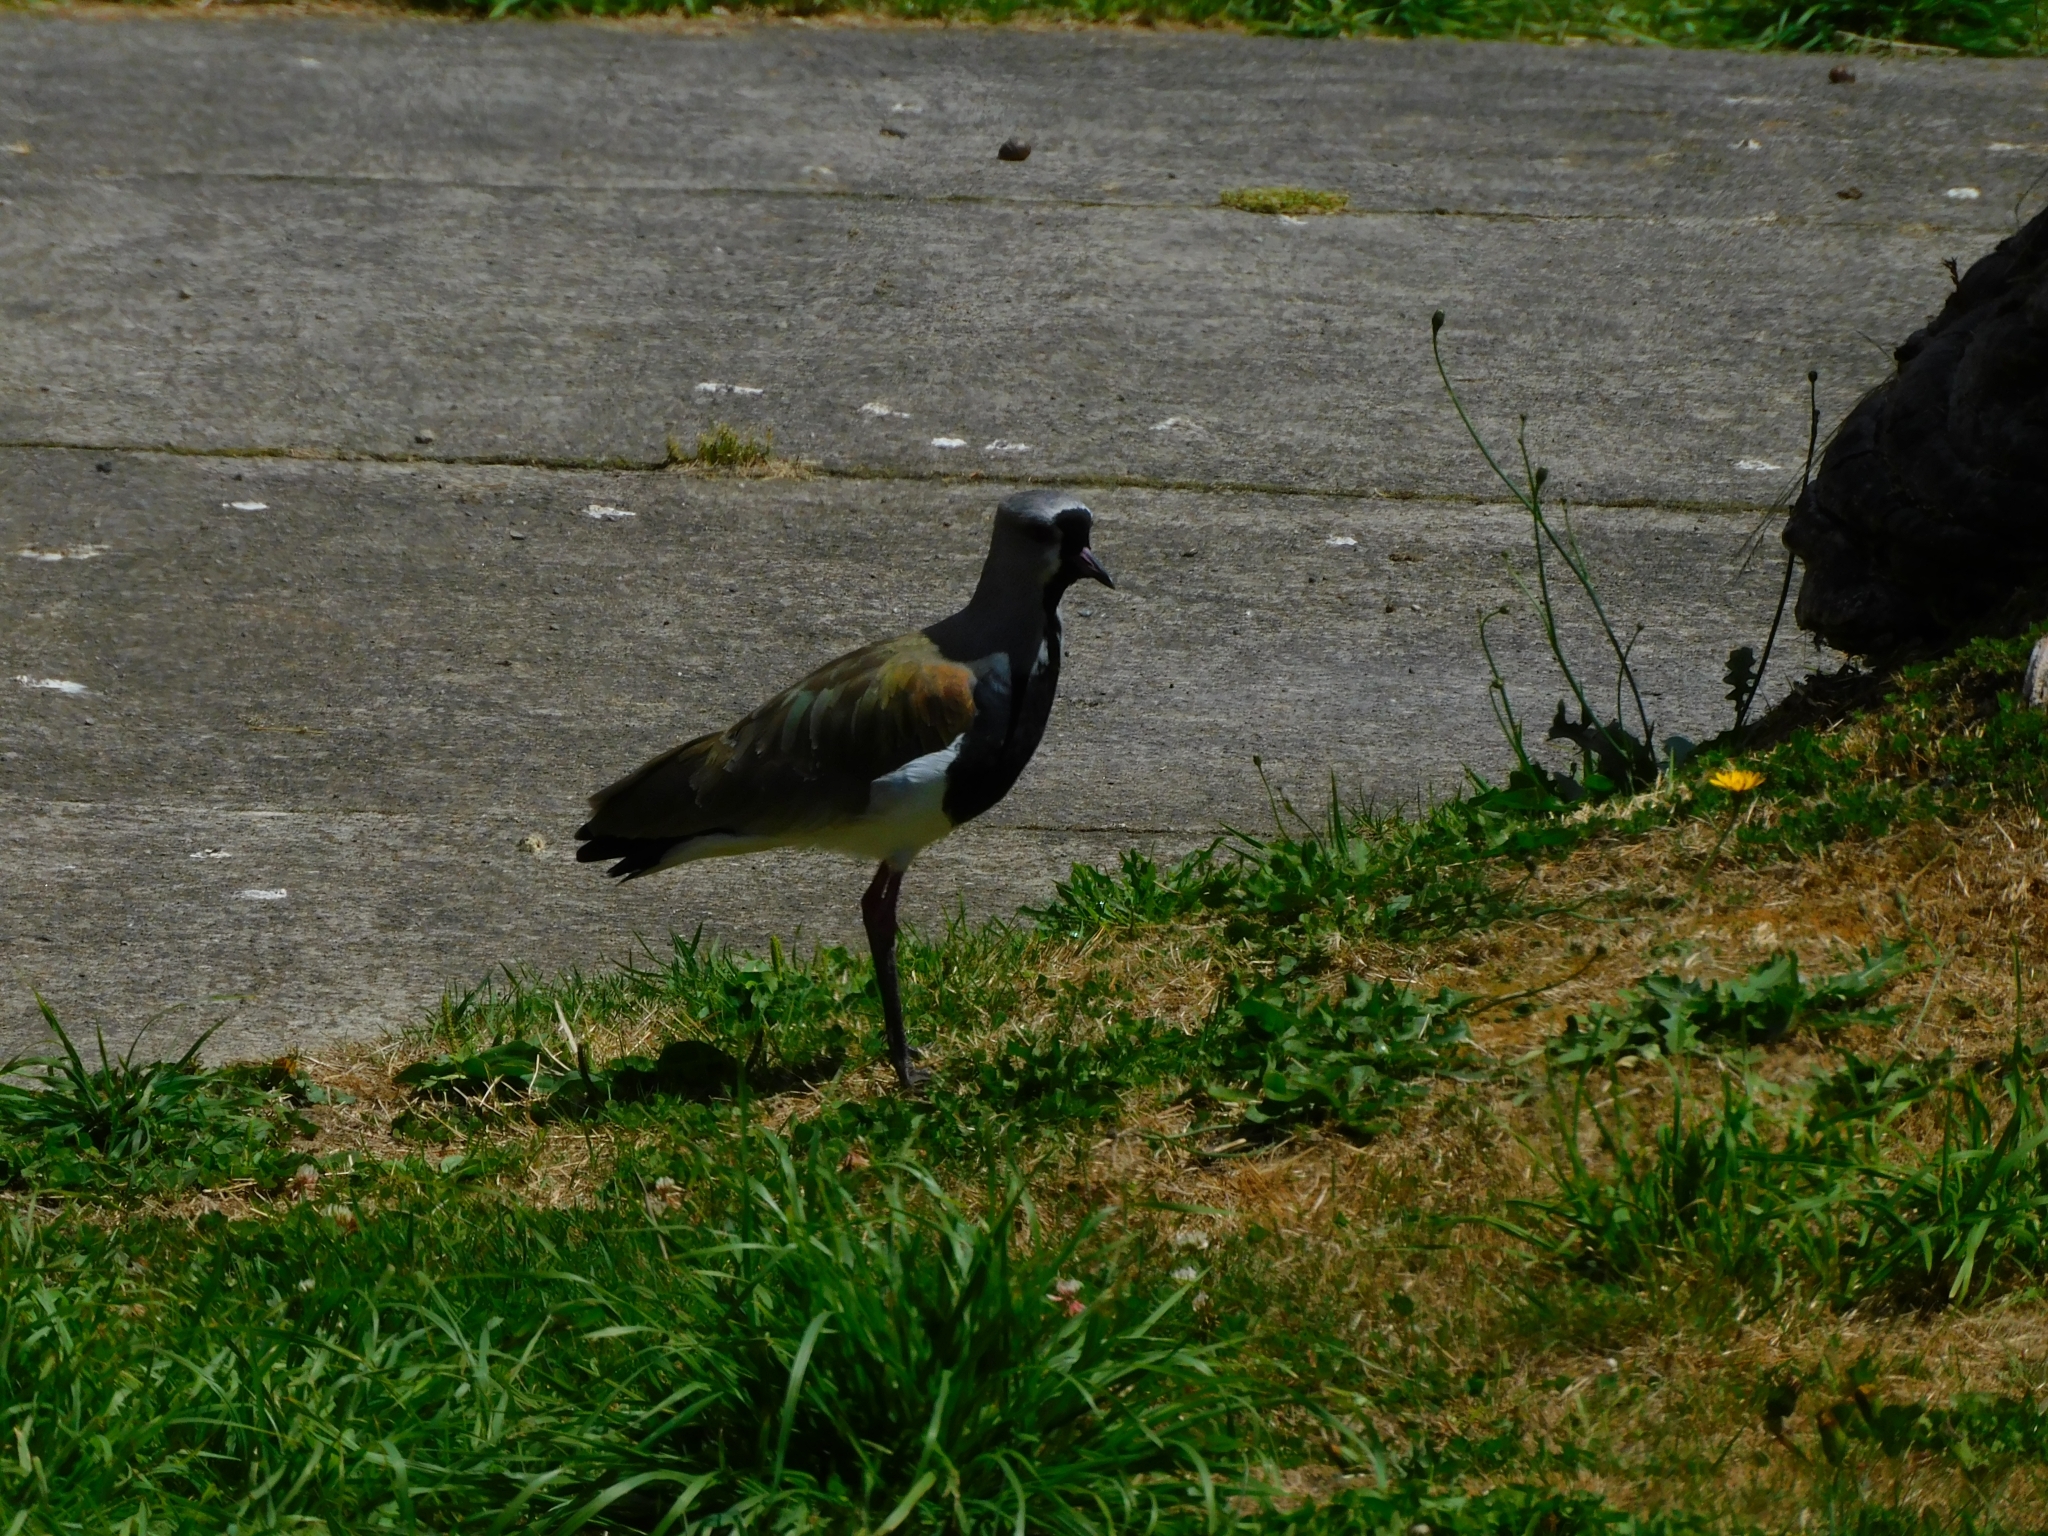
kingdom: Animalia
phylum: Chordata
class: Aves
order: Charadriiformes
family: Charadriidae
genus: Vanellus
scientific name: Vanellus chilensis
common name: Southern lapwing
